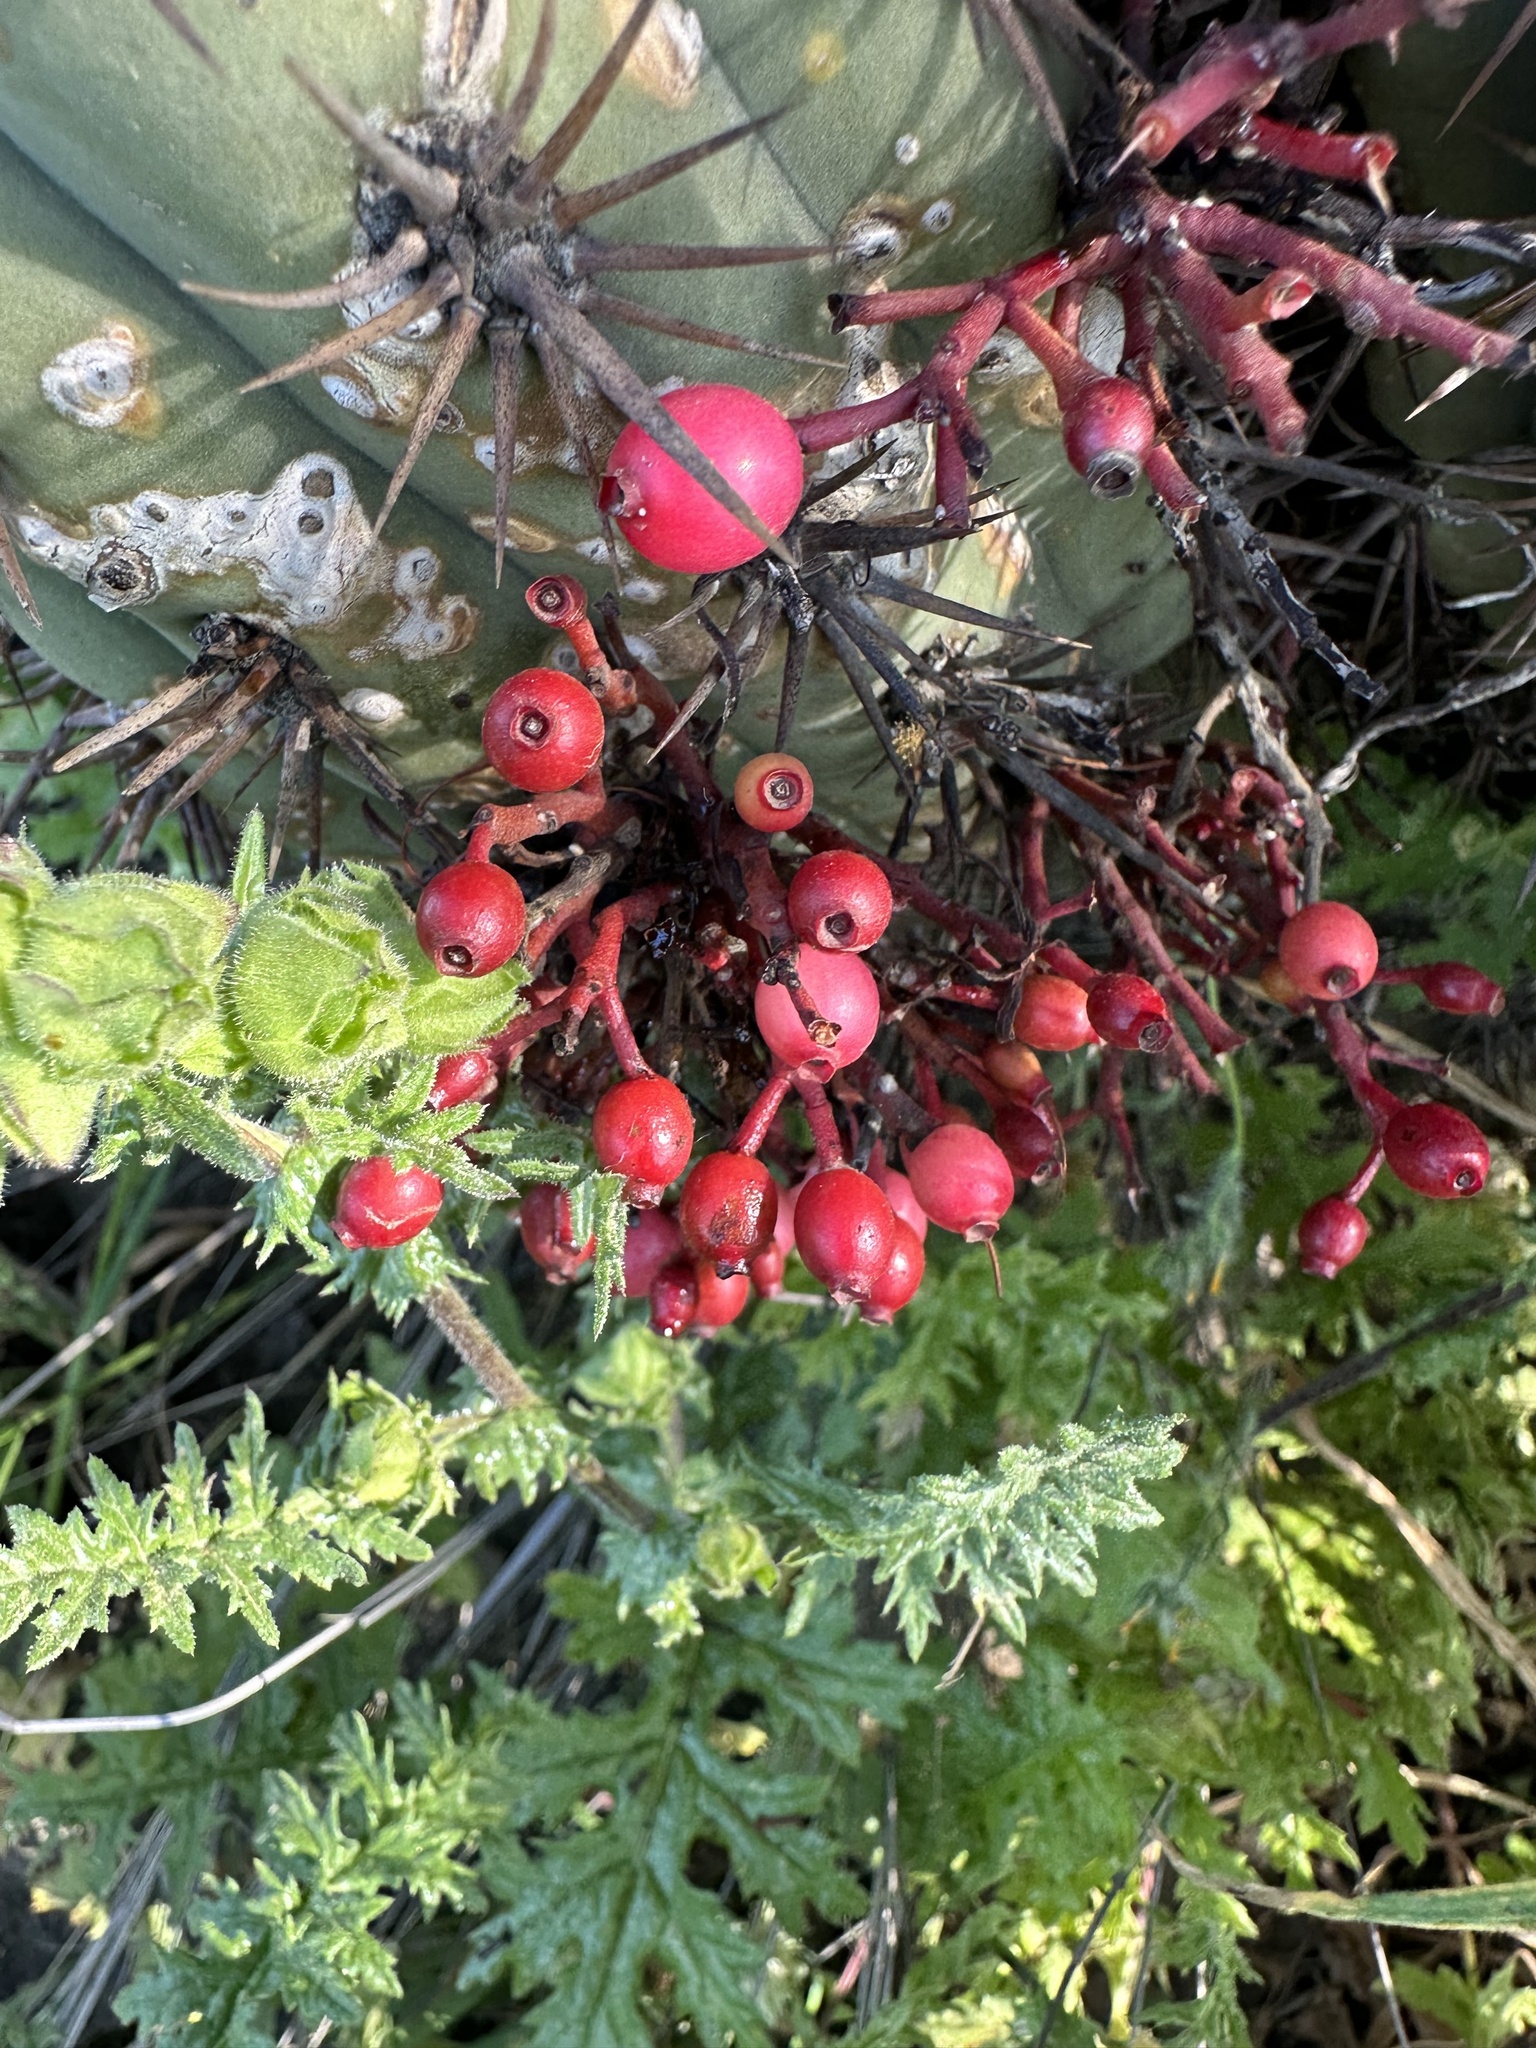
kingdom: Plantae
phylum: Tracheophyta
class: Magnoliopsida
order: Santalales
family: Loranthaceae
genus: Tristerix
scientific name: Tristerix aphyllus
